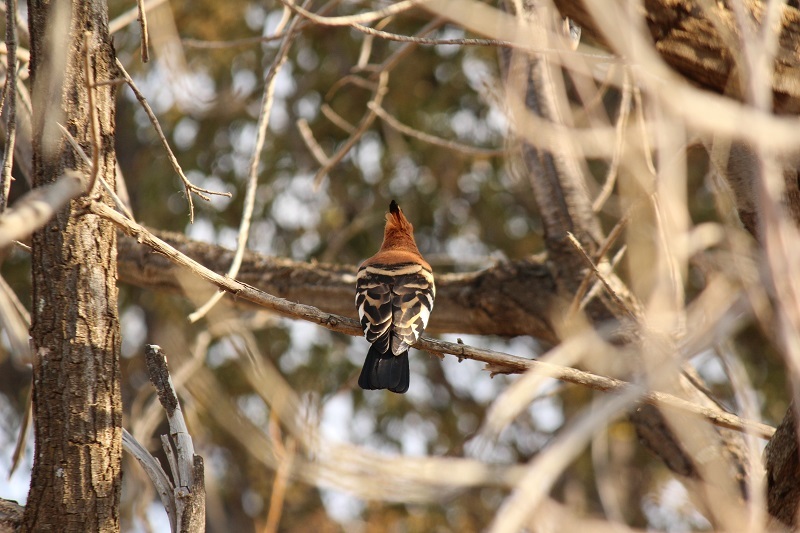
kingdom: Animalia
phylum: Chordata
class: Aves
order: Bucerotiformes
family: Upupidae
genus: Upupa
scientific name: Upupa africana
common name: African hoopoe
